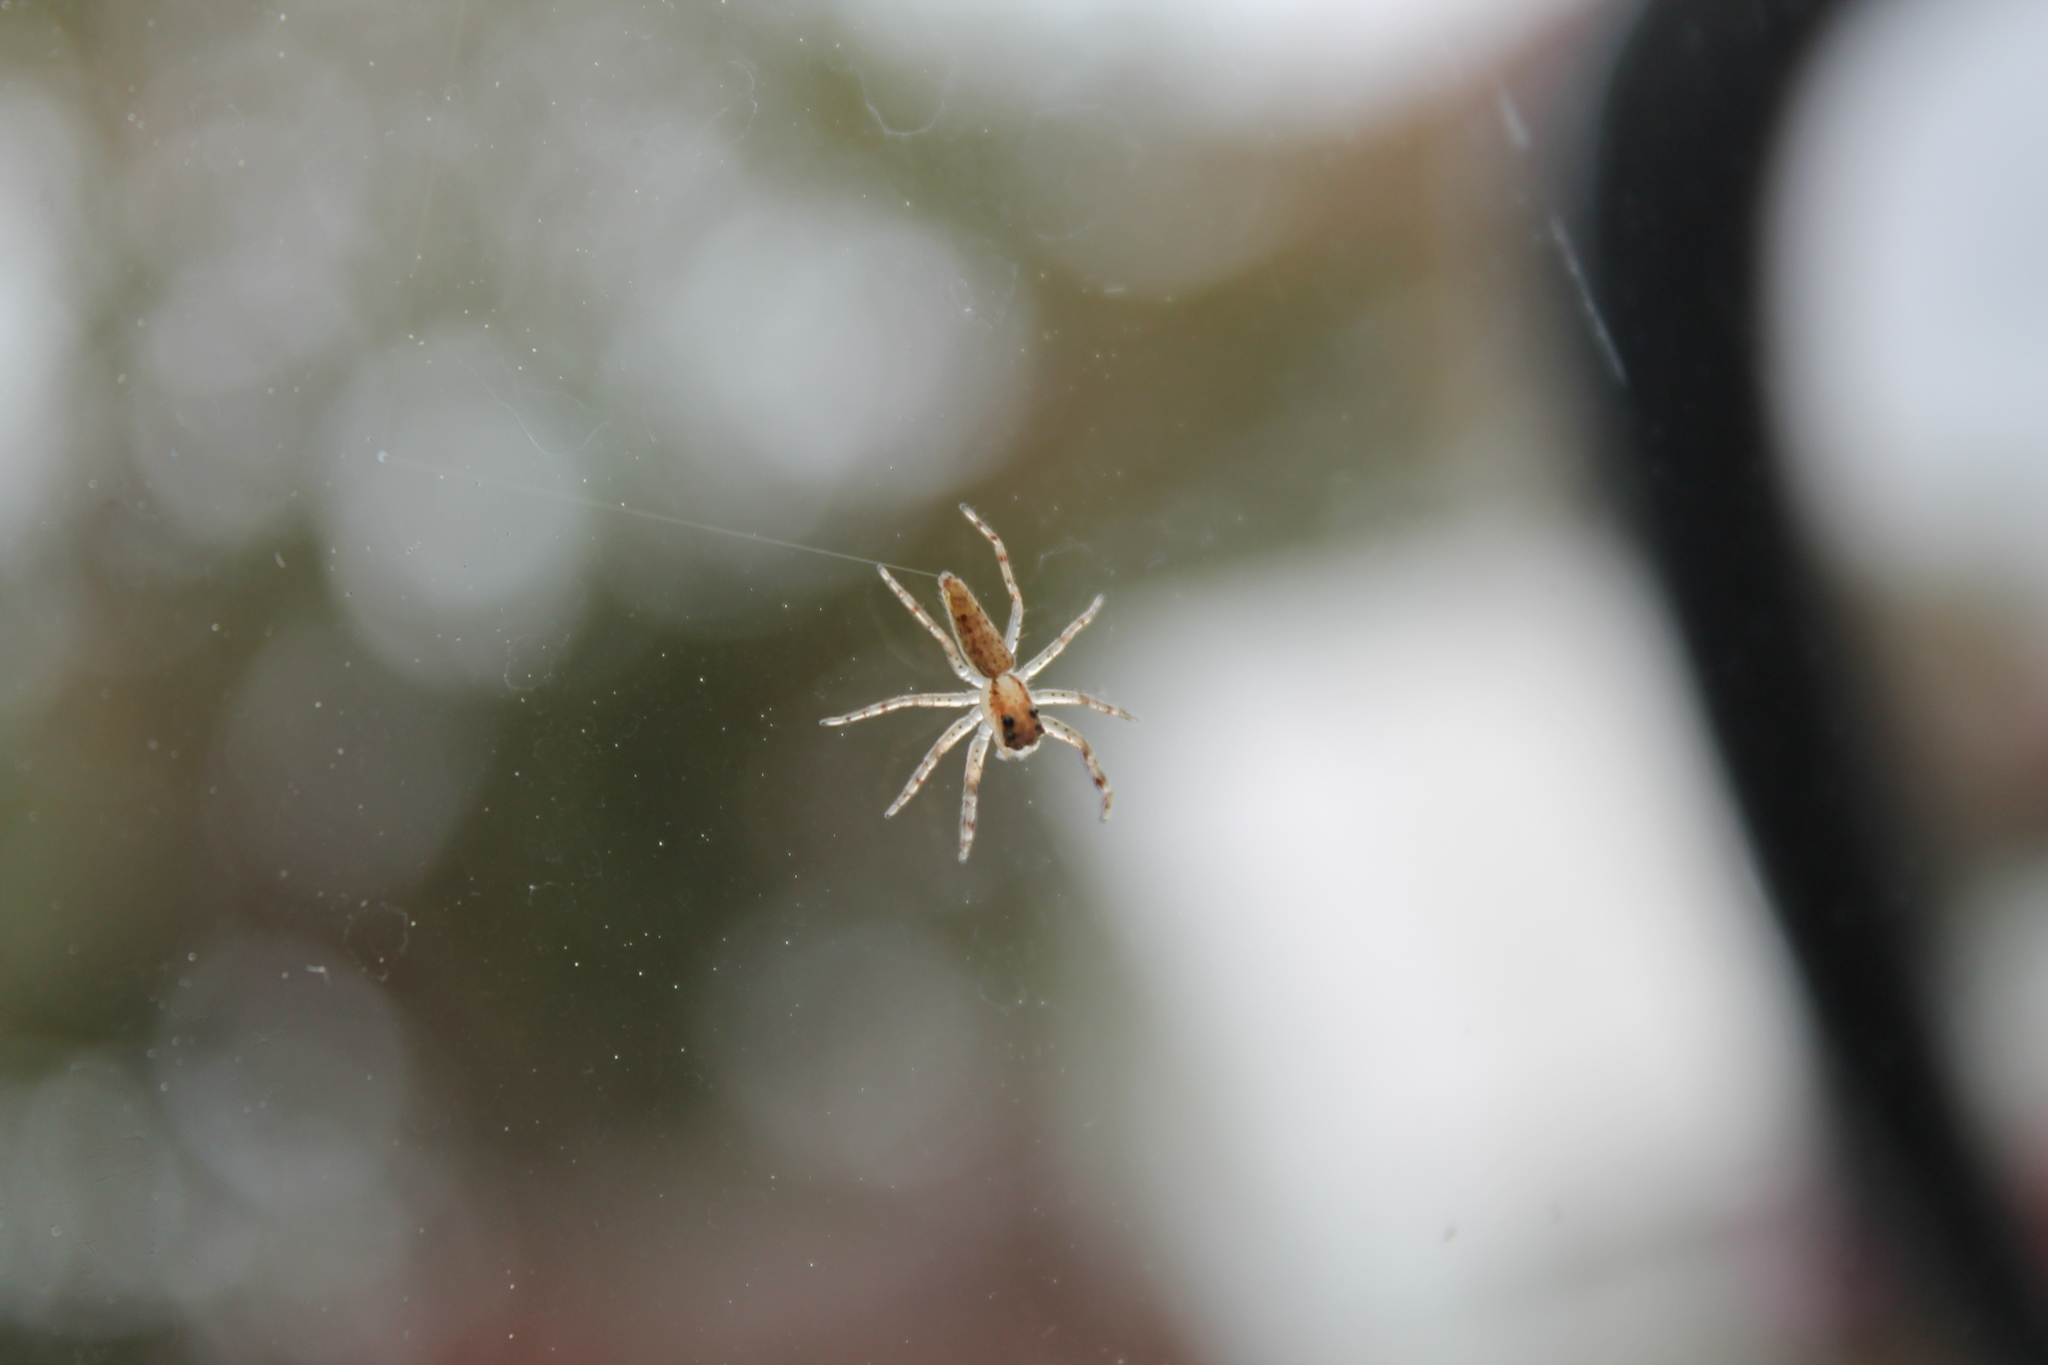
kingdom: Animalia
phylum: Arthropoda
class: Arachnida
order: Araneae
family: Salticidae
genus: Helpis
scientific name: Helpis minitabunda
